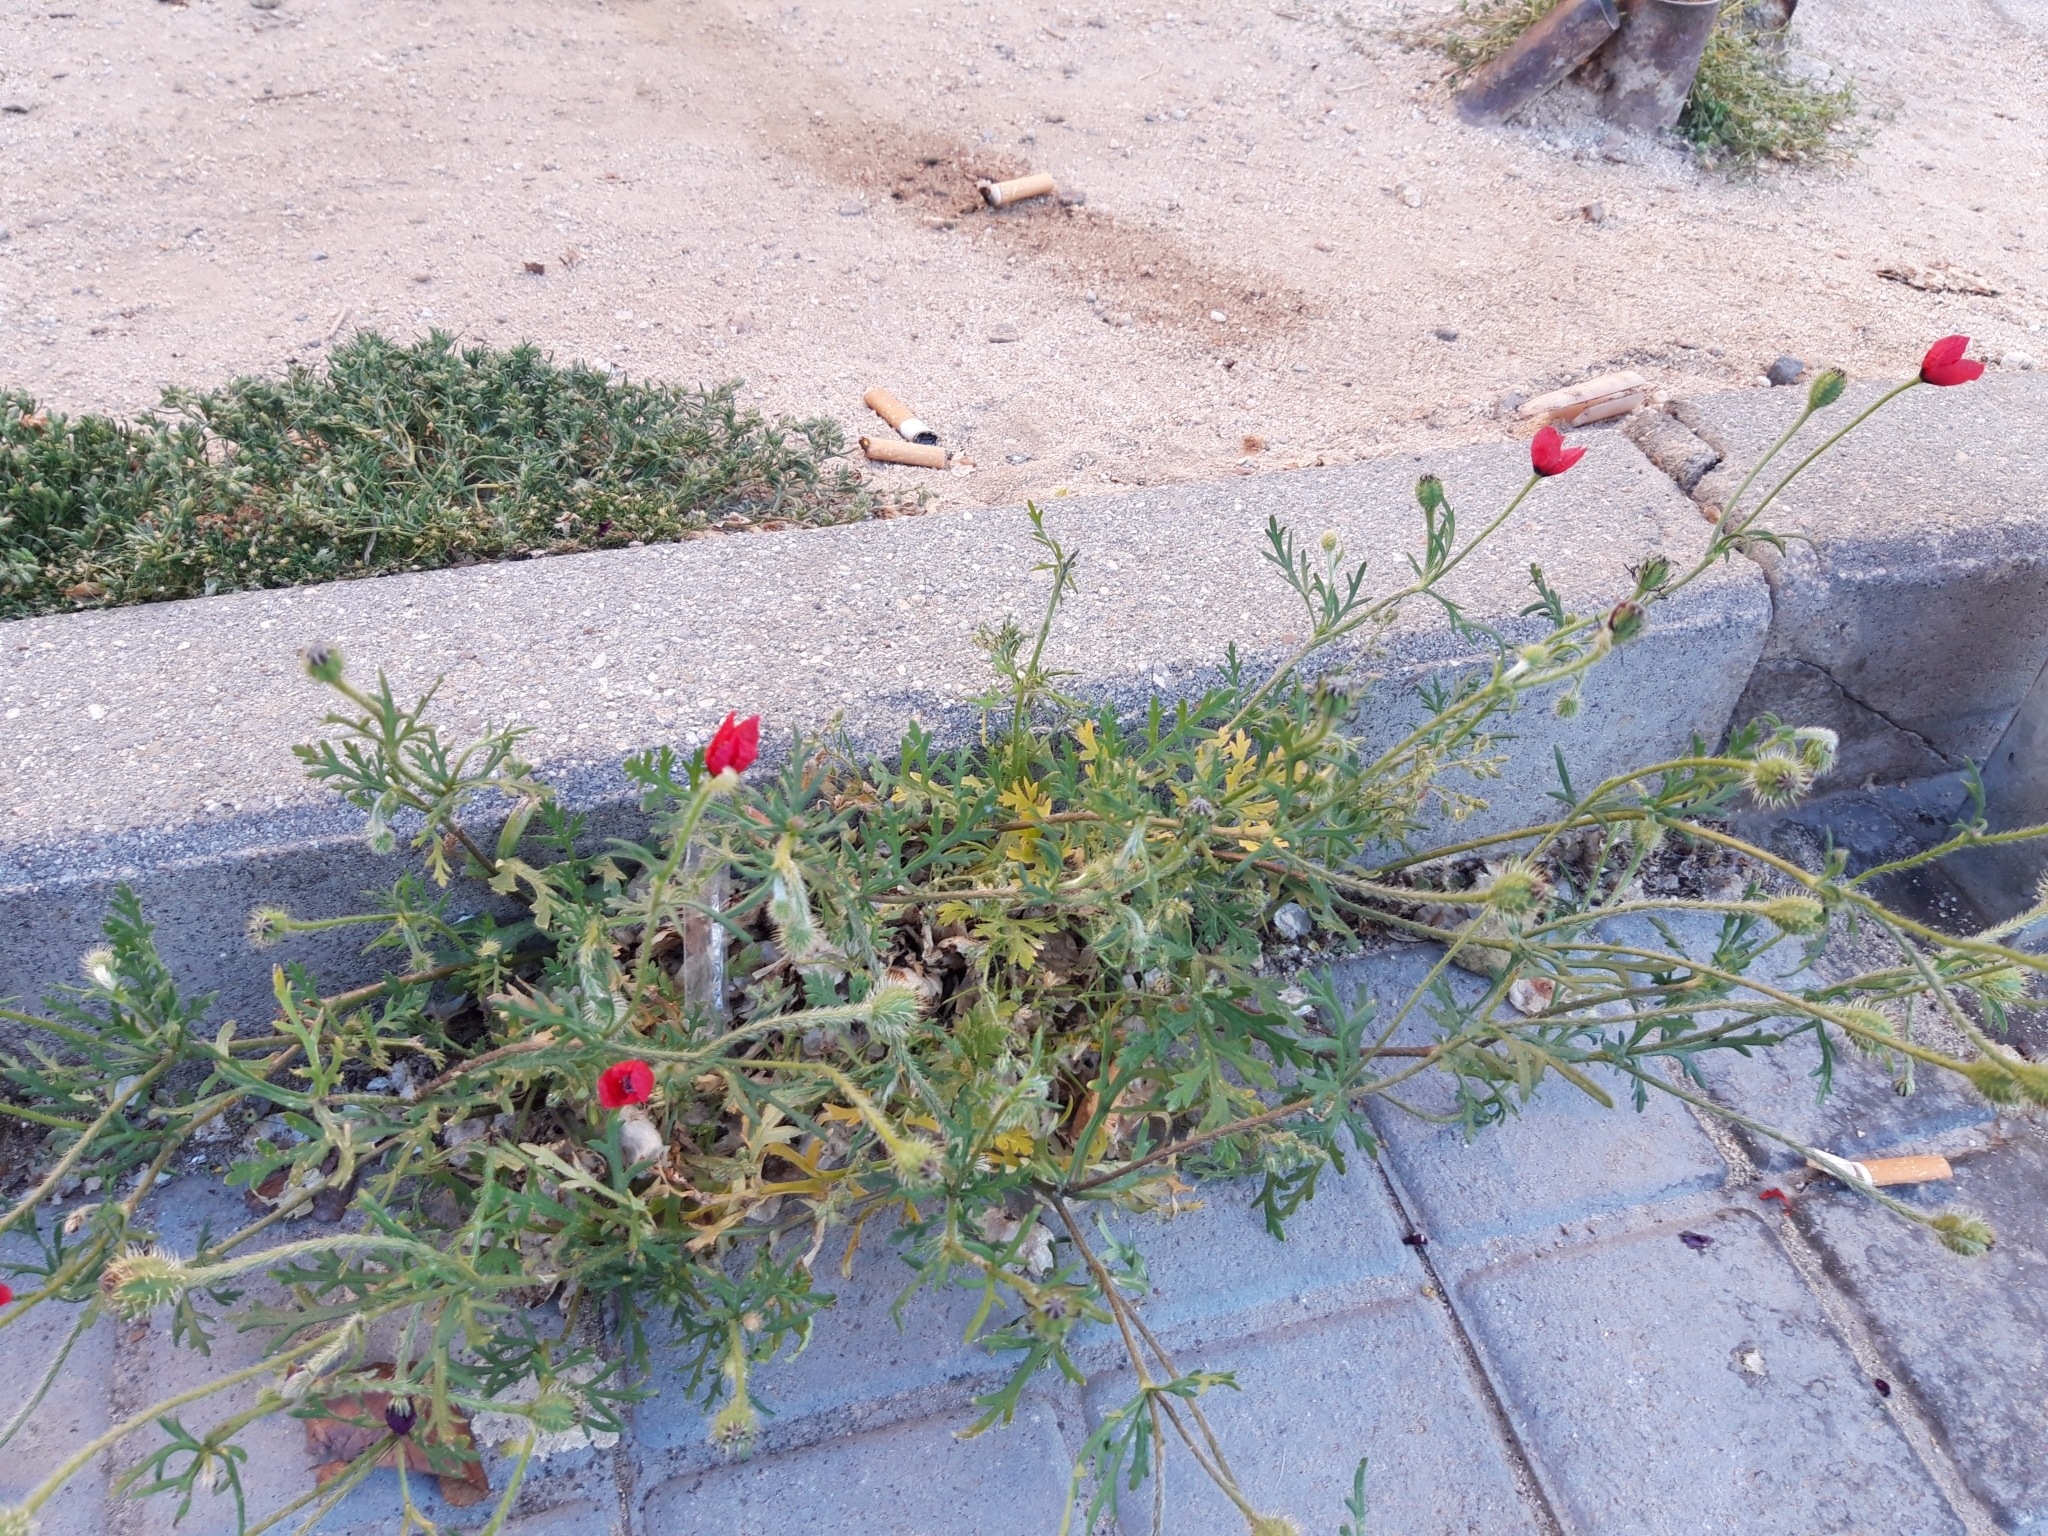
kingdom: Plantae
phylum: Tracheophyta
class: Magnoliopsida
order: Ranunculales
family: Papaveraceae
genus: Roemeria
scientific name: Roemeria hispida
